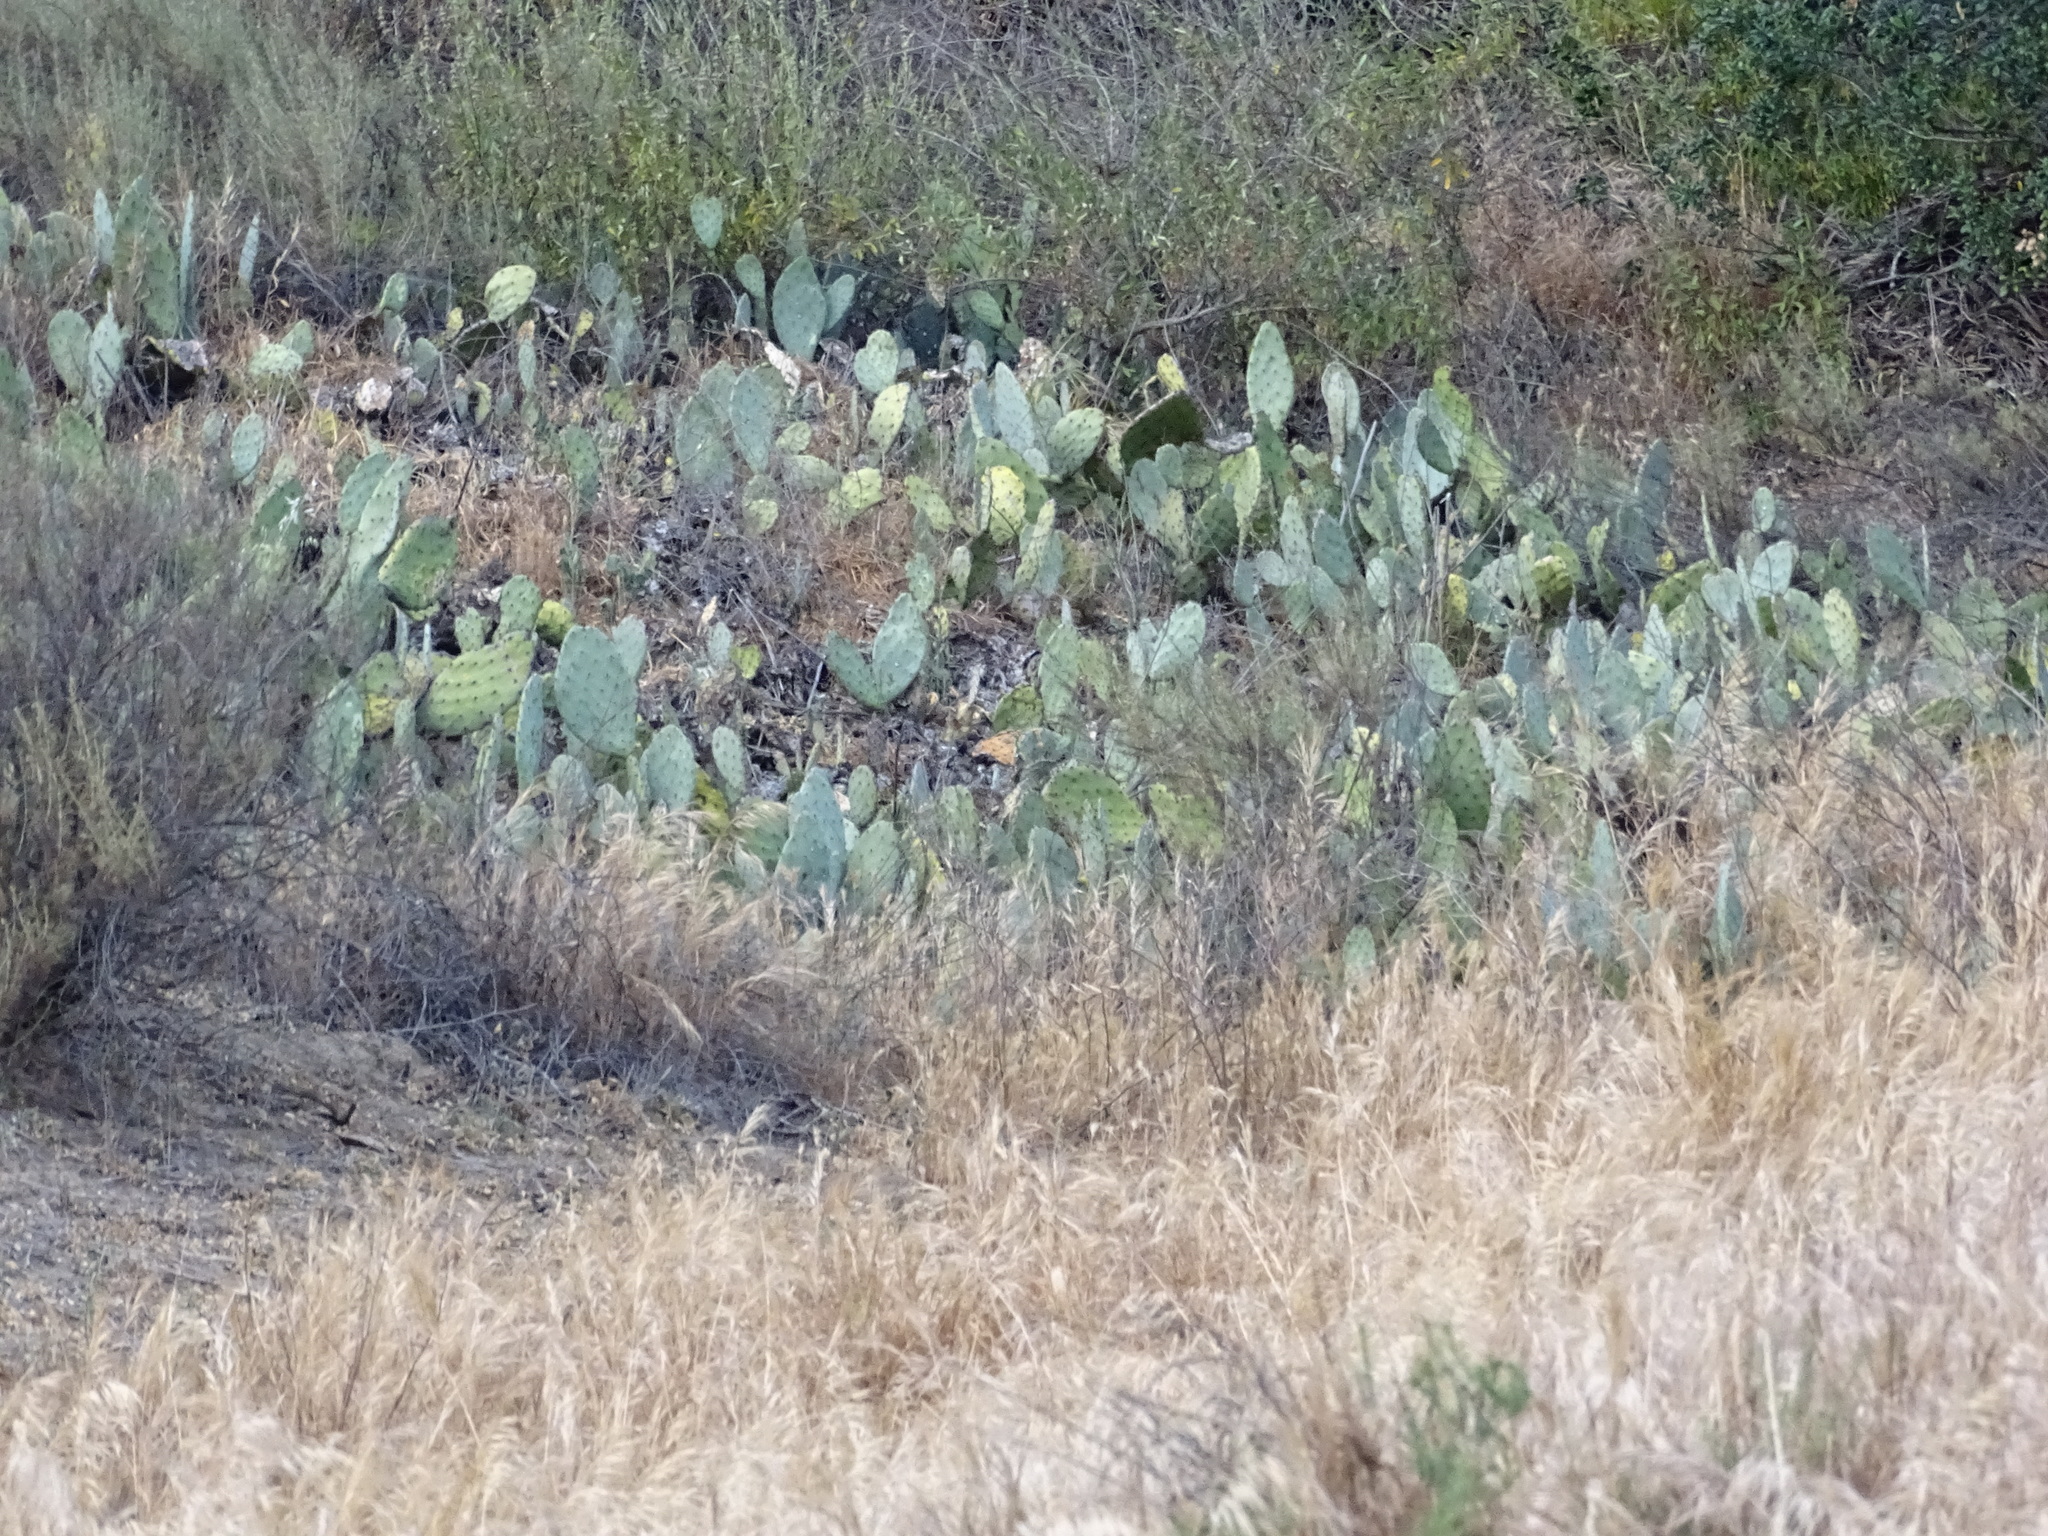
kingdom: Plantae
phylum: Tracheophyta
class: Magnoliopsida
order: Caryophyllales
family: Cactaceae
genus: Opuntia
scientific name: Opuntia littoralis
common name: Coastal prickly-pear
